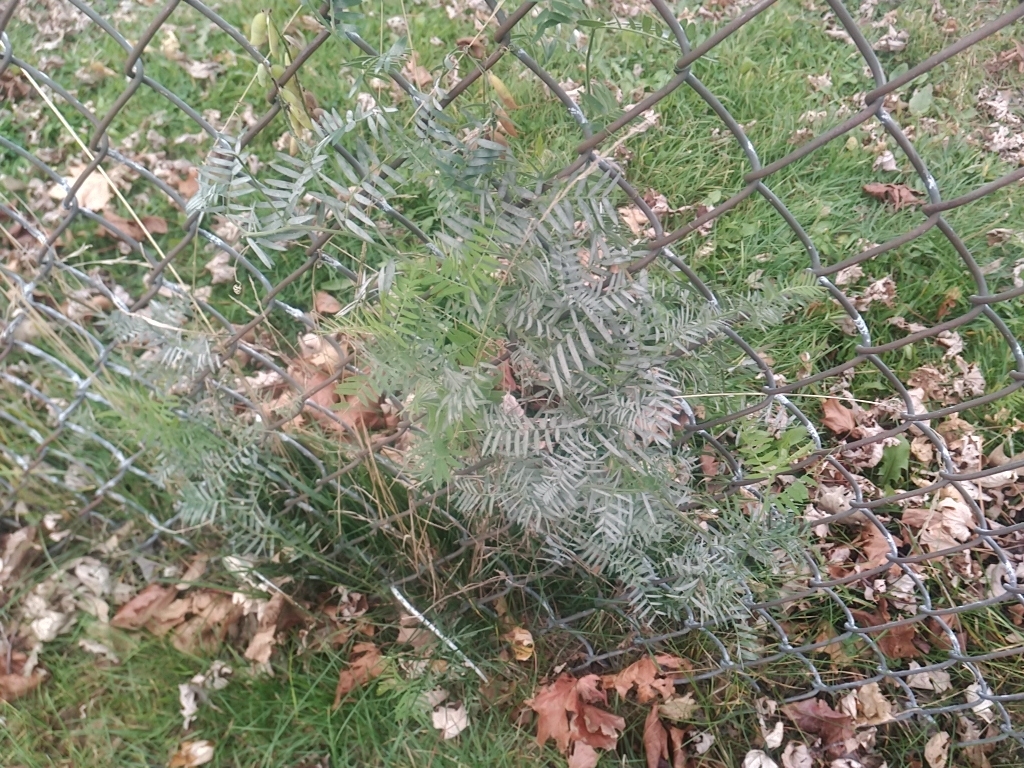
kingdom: Plantae
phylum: Tracheophyta
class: Magnoliopsida
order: Fabales
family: Fabaceae
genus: Vicia
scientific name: Vicia cracca
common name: Bird vetch
